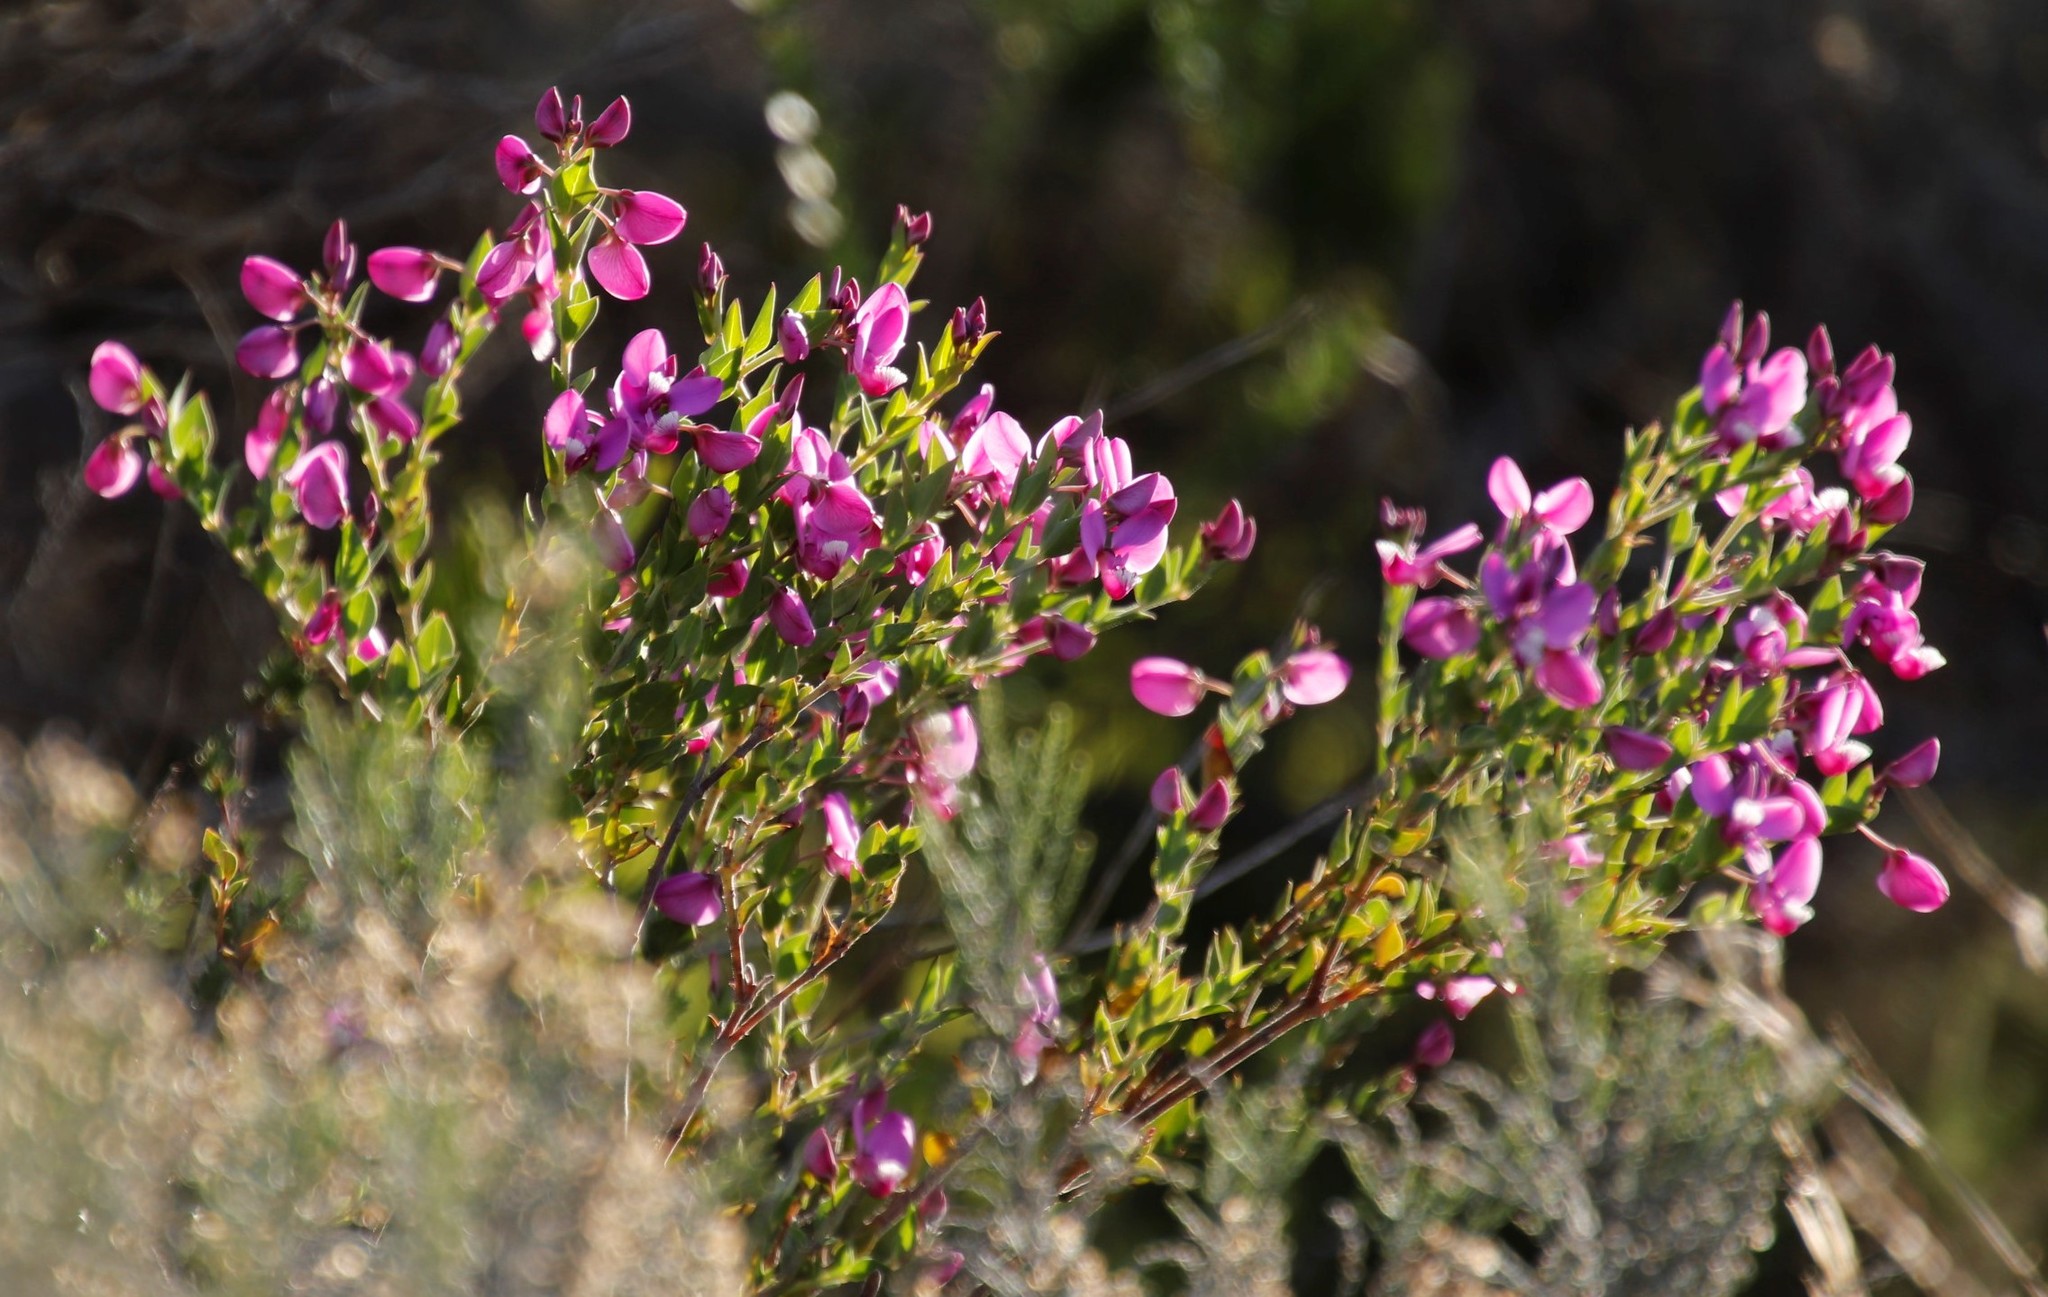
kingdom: Plantae
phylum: Tracheophyta
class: Magnoliopsida
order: Fabales
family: Polygalaceae
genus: Polygala
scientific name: Polygala fruticosa
